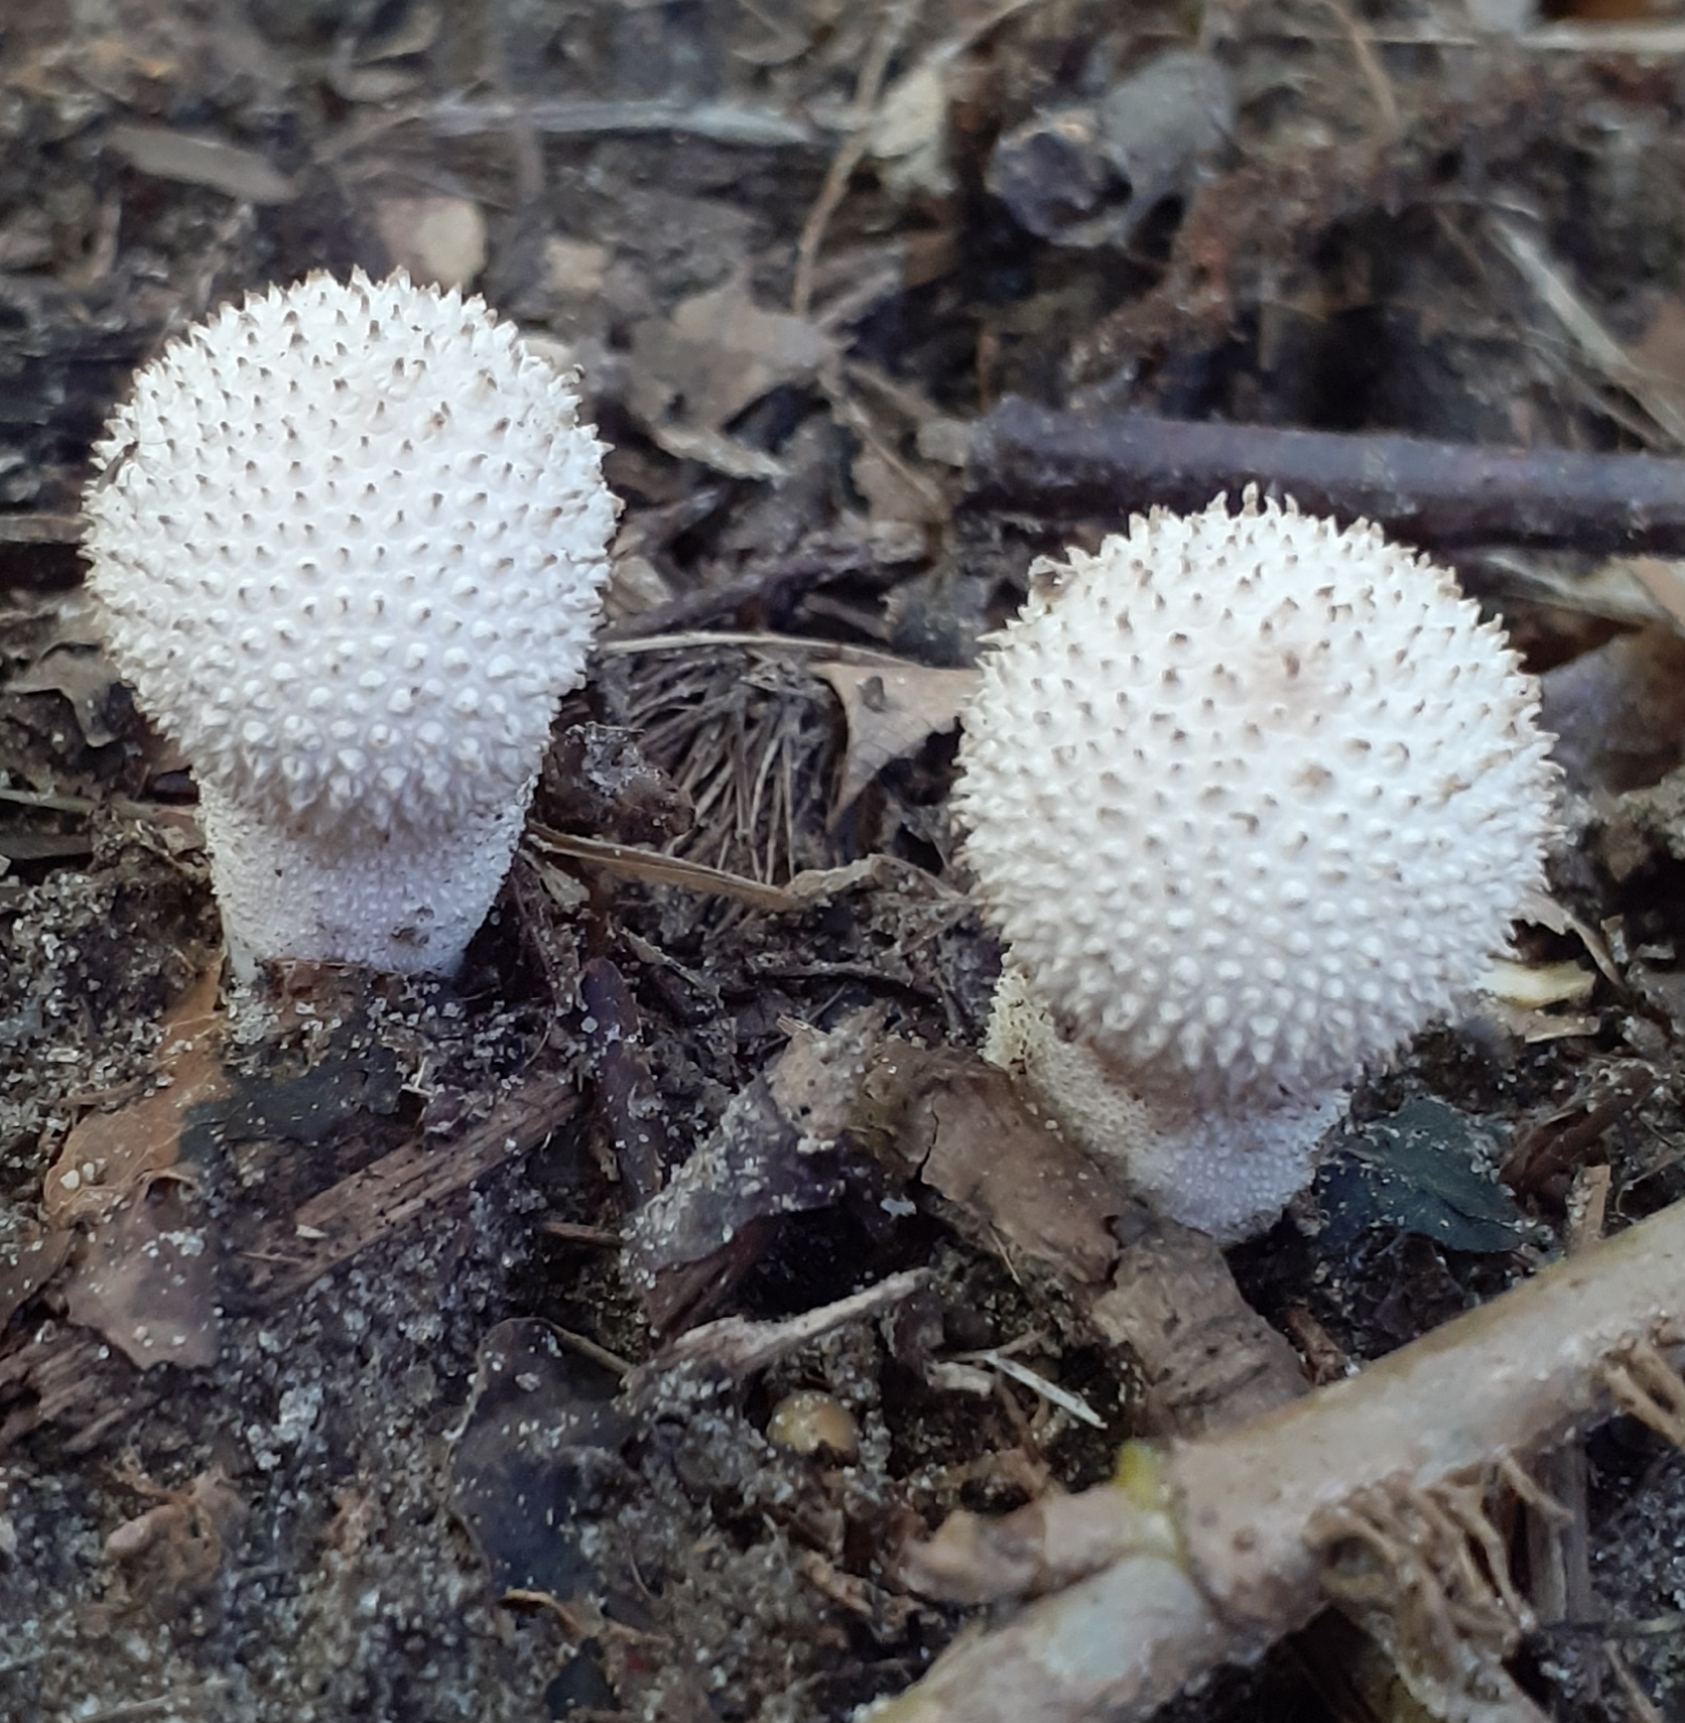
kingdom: Fungi
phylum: Basidiomycota
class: Agaricomycetes
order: Agaricales
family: Lycoperdaceae
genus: Lycoperdon
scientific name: Lycoperdon perlatum
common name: Common puffball
